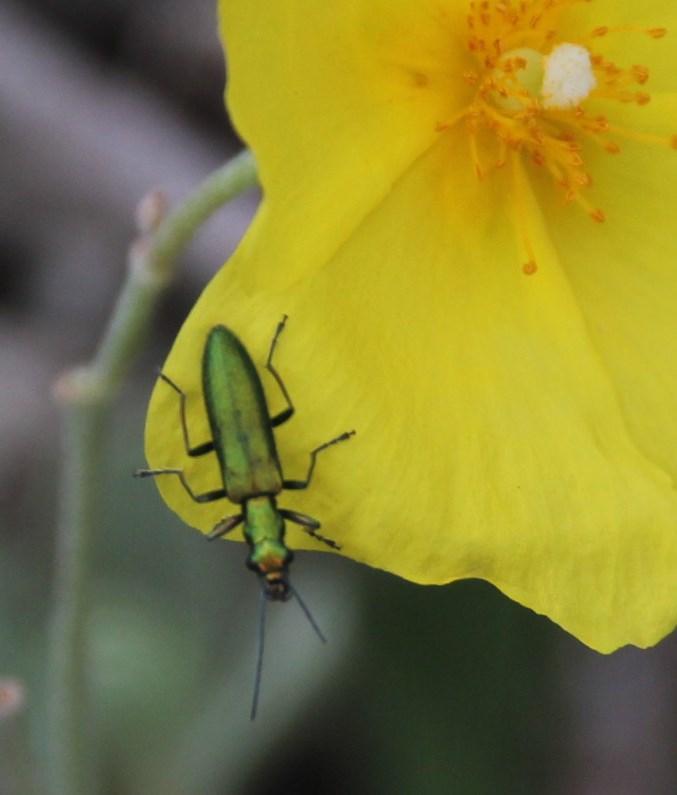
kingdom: Animalia
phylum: Arthropoda
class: Insecta
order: Coleoptera
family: Oedemeridae
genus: Chrysanthia
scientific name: Chrysanthia superba
